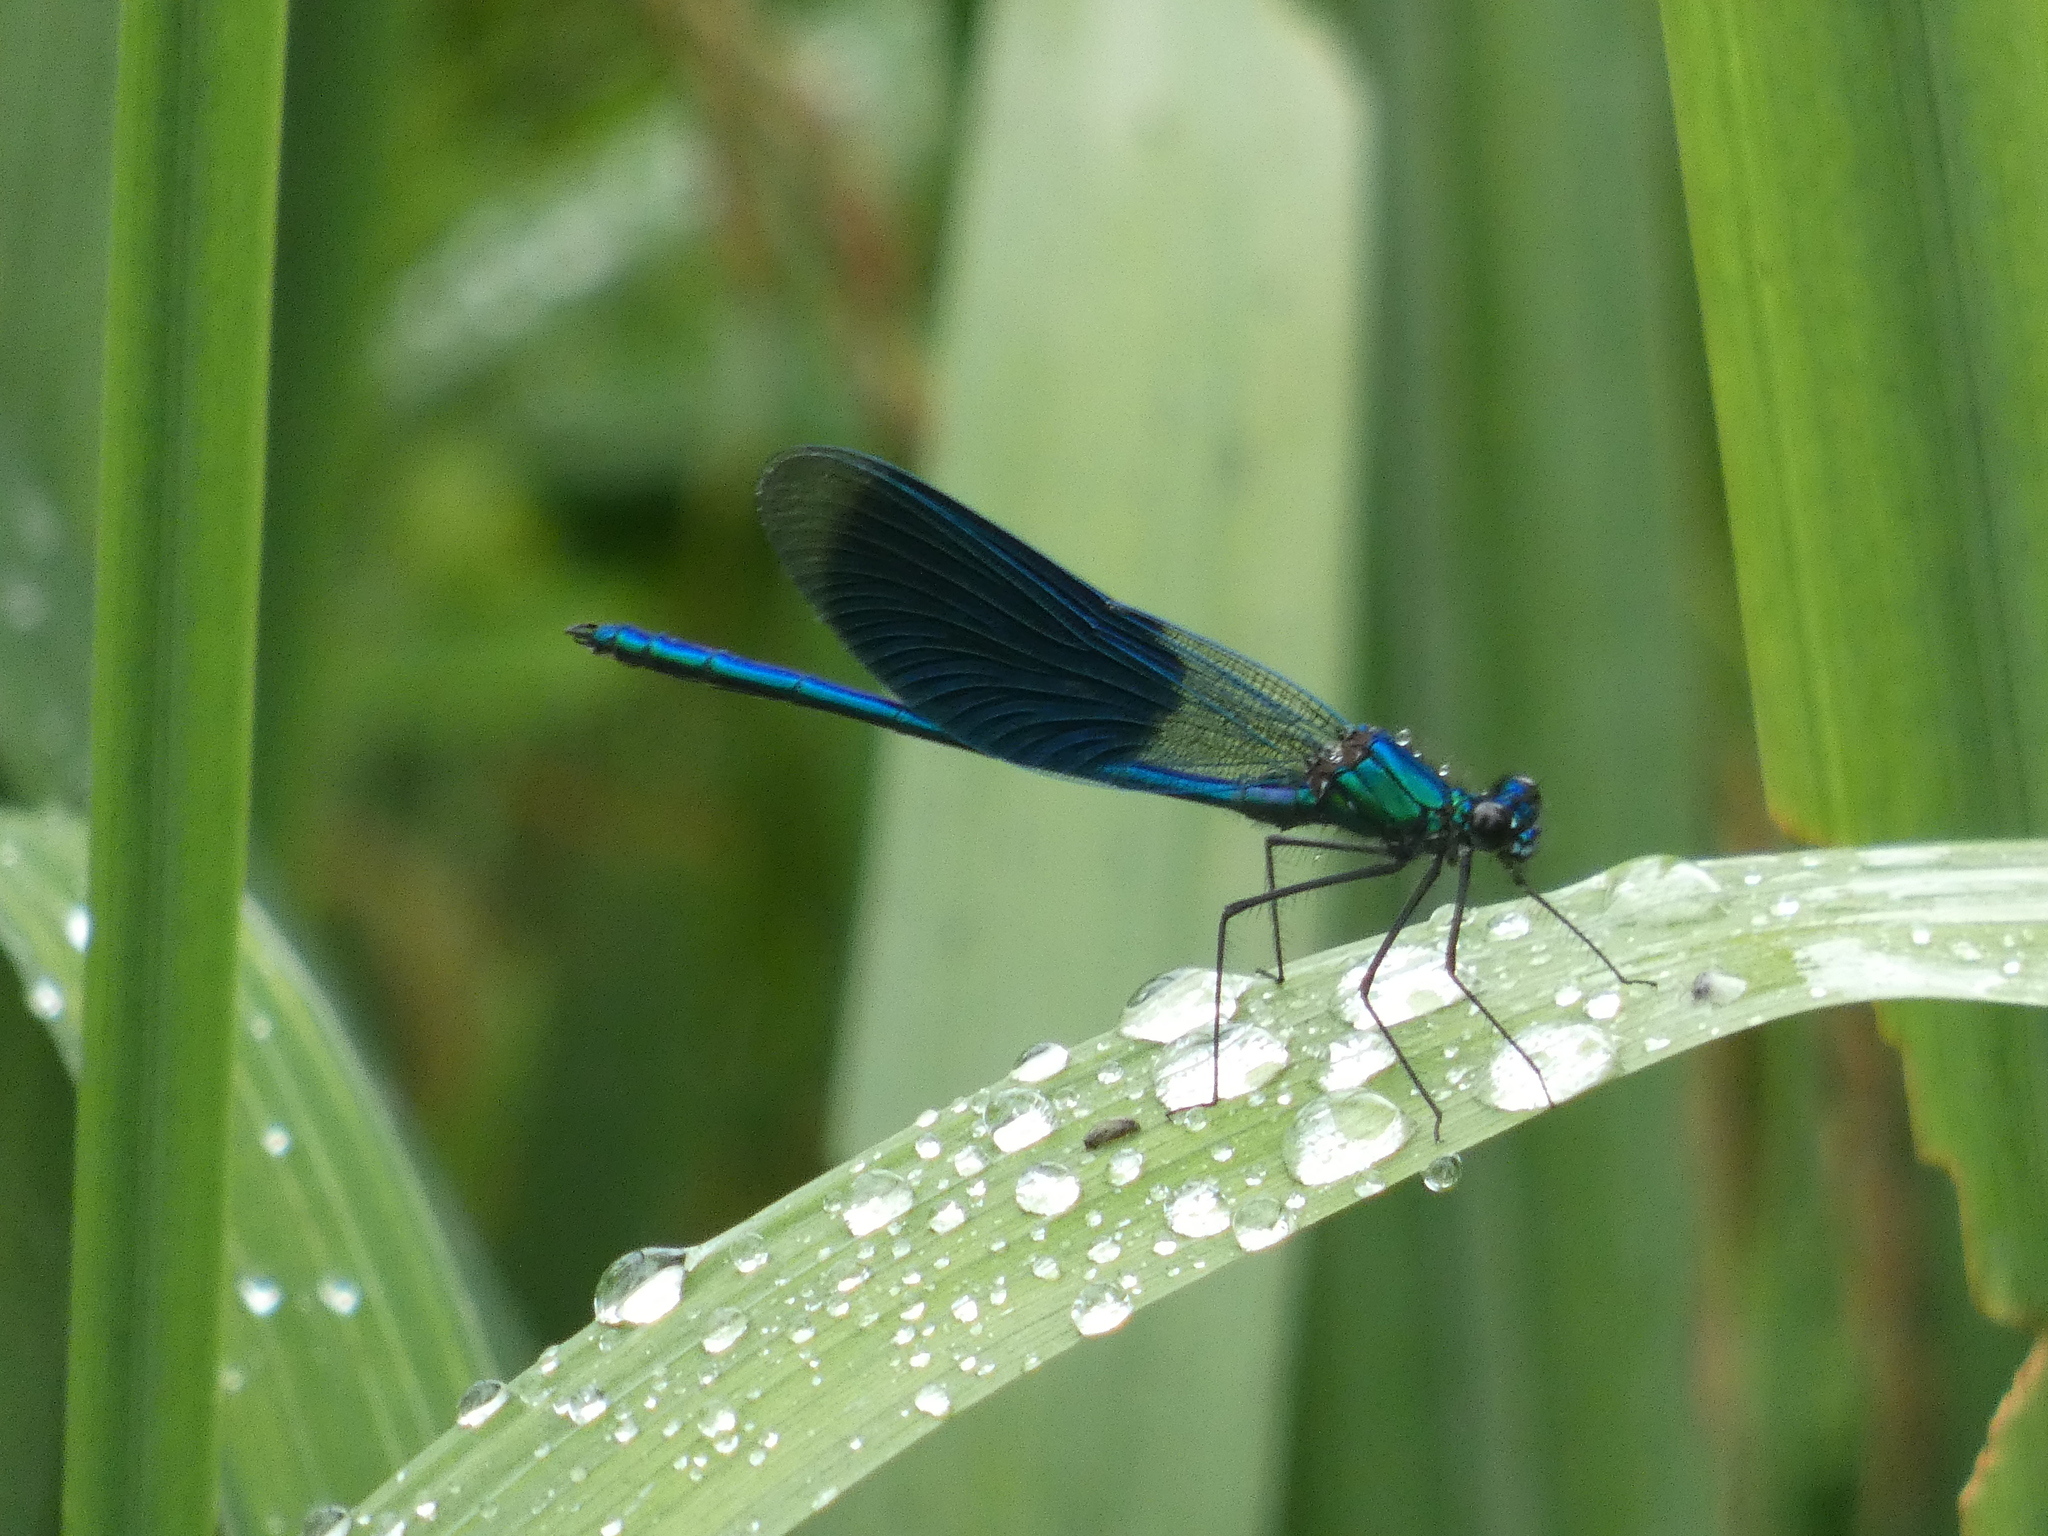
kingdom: Animalia
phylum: Arthropoda
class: Insecta
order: Odonata
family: Calopterygidae
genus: Calopteryx
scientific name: Calopteryx splendens
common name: Banded demoiselle
